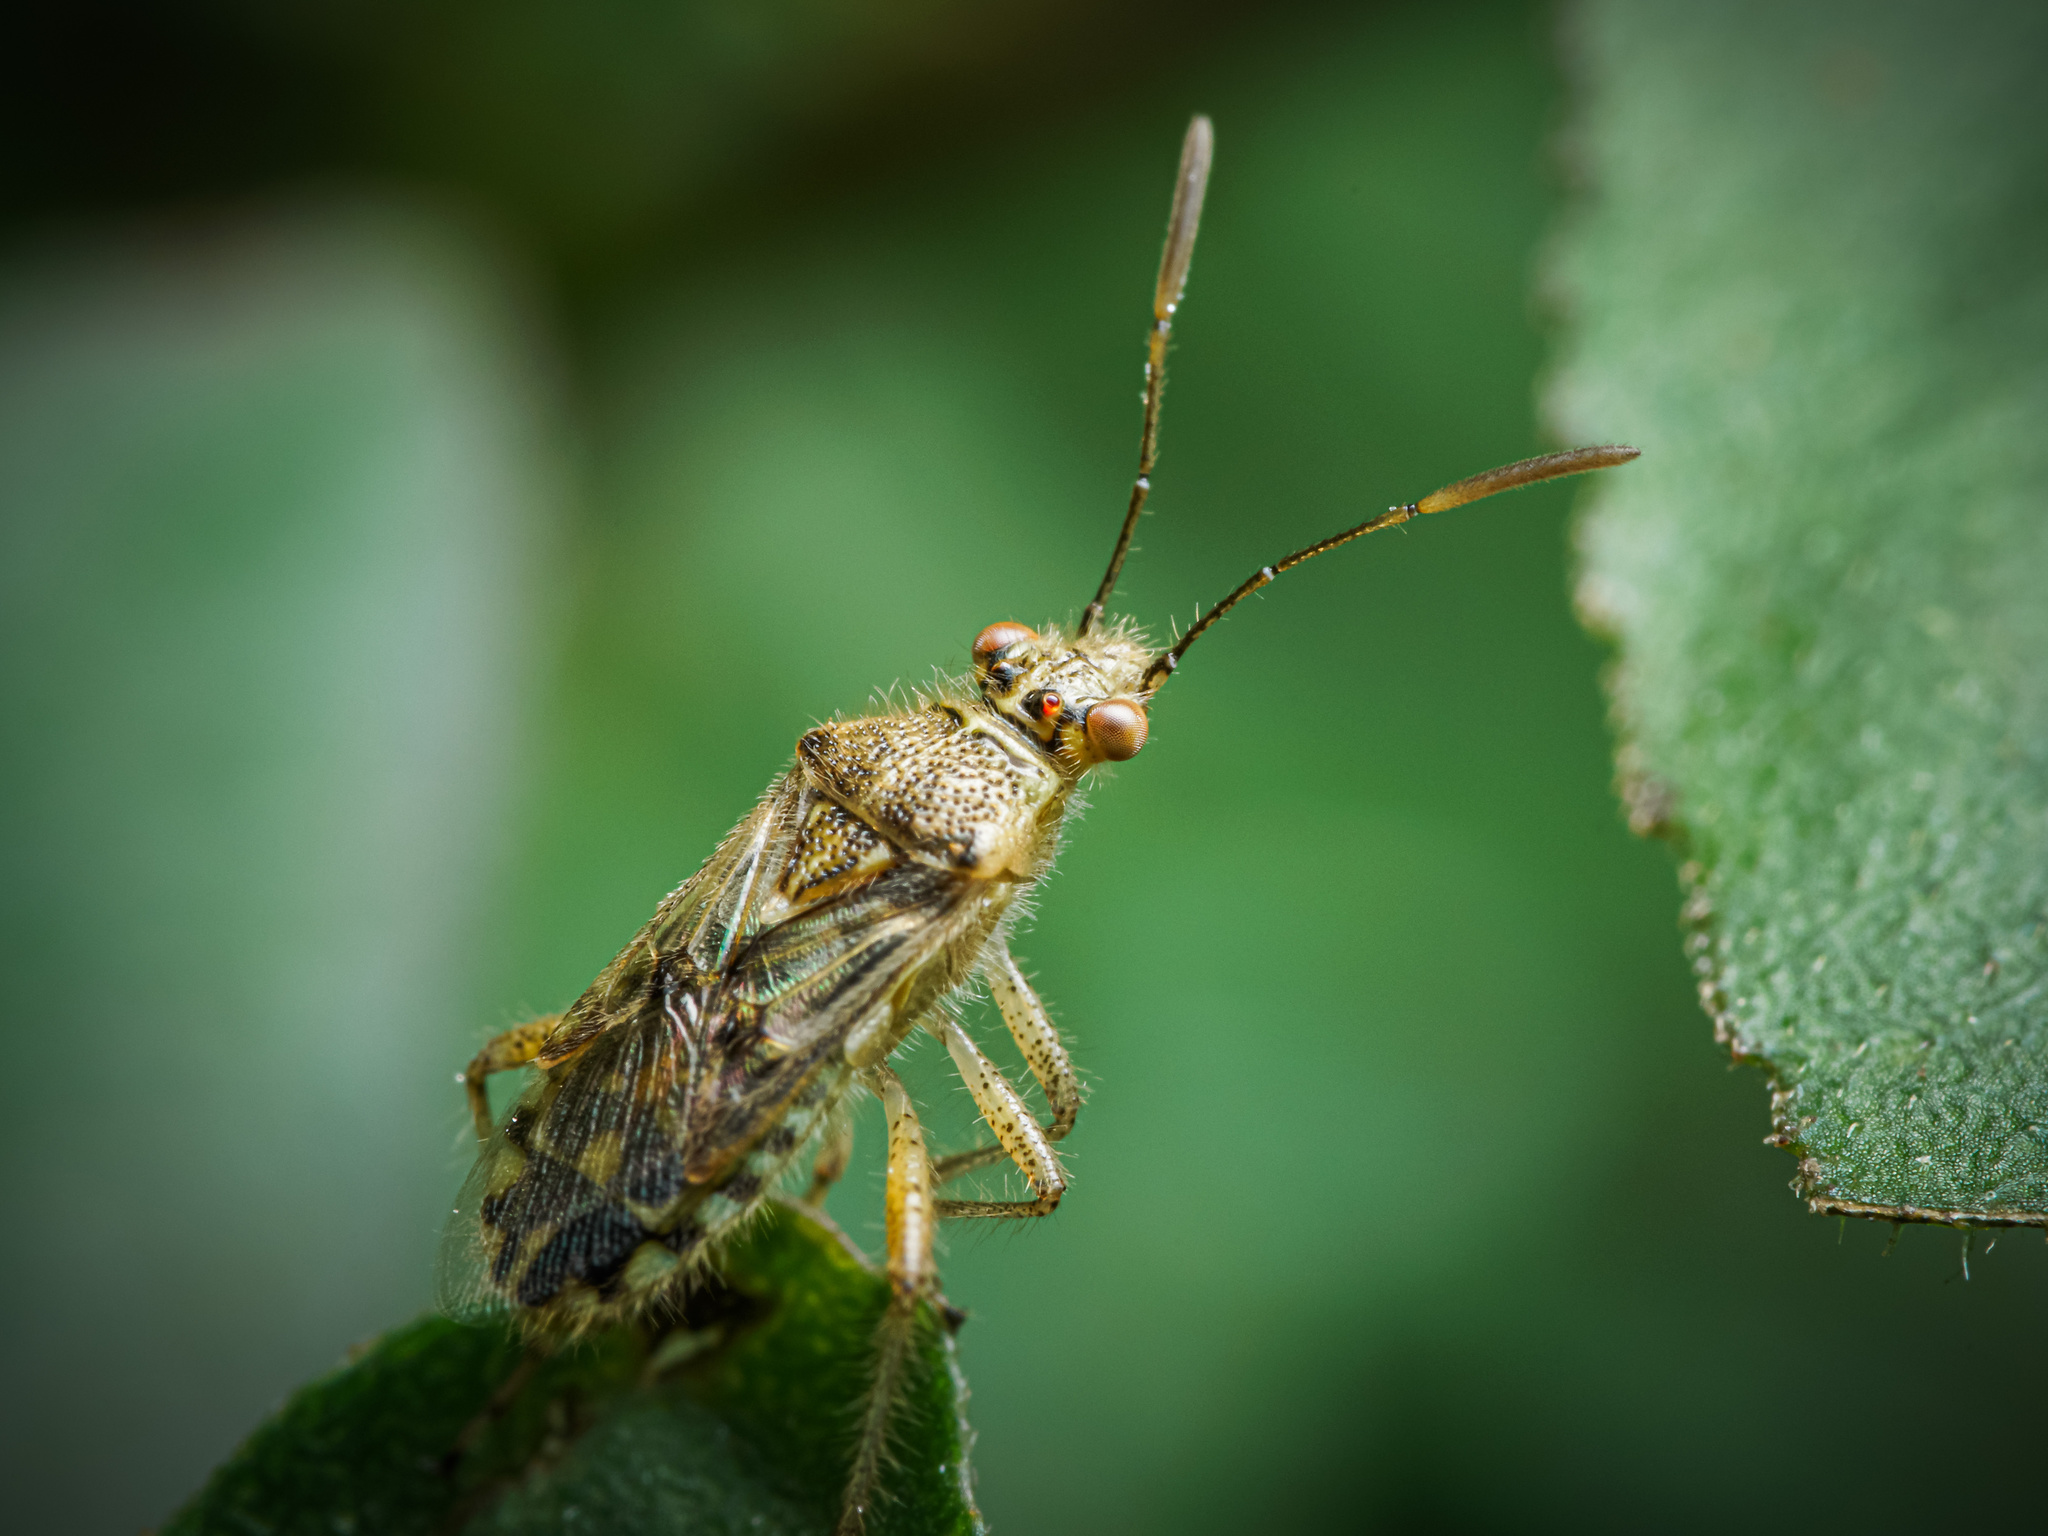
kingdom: Animalia
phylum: Arthropoda
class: Insecta
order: Hemiptera
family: Rhopalidae
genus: Liorhyssus
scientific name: Liorhyssus hyalinus
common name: Scentless plant bug
